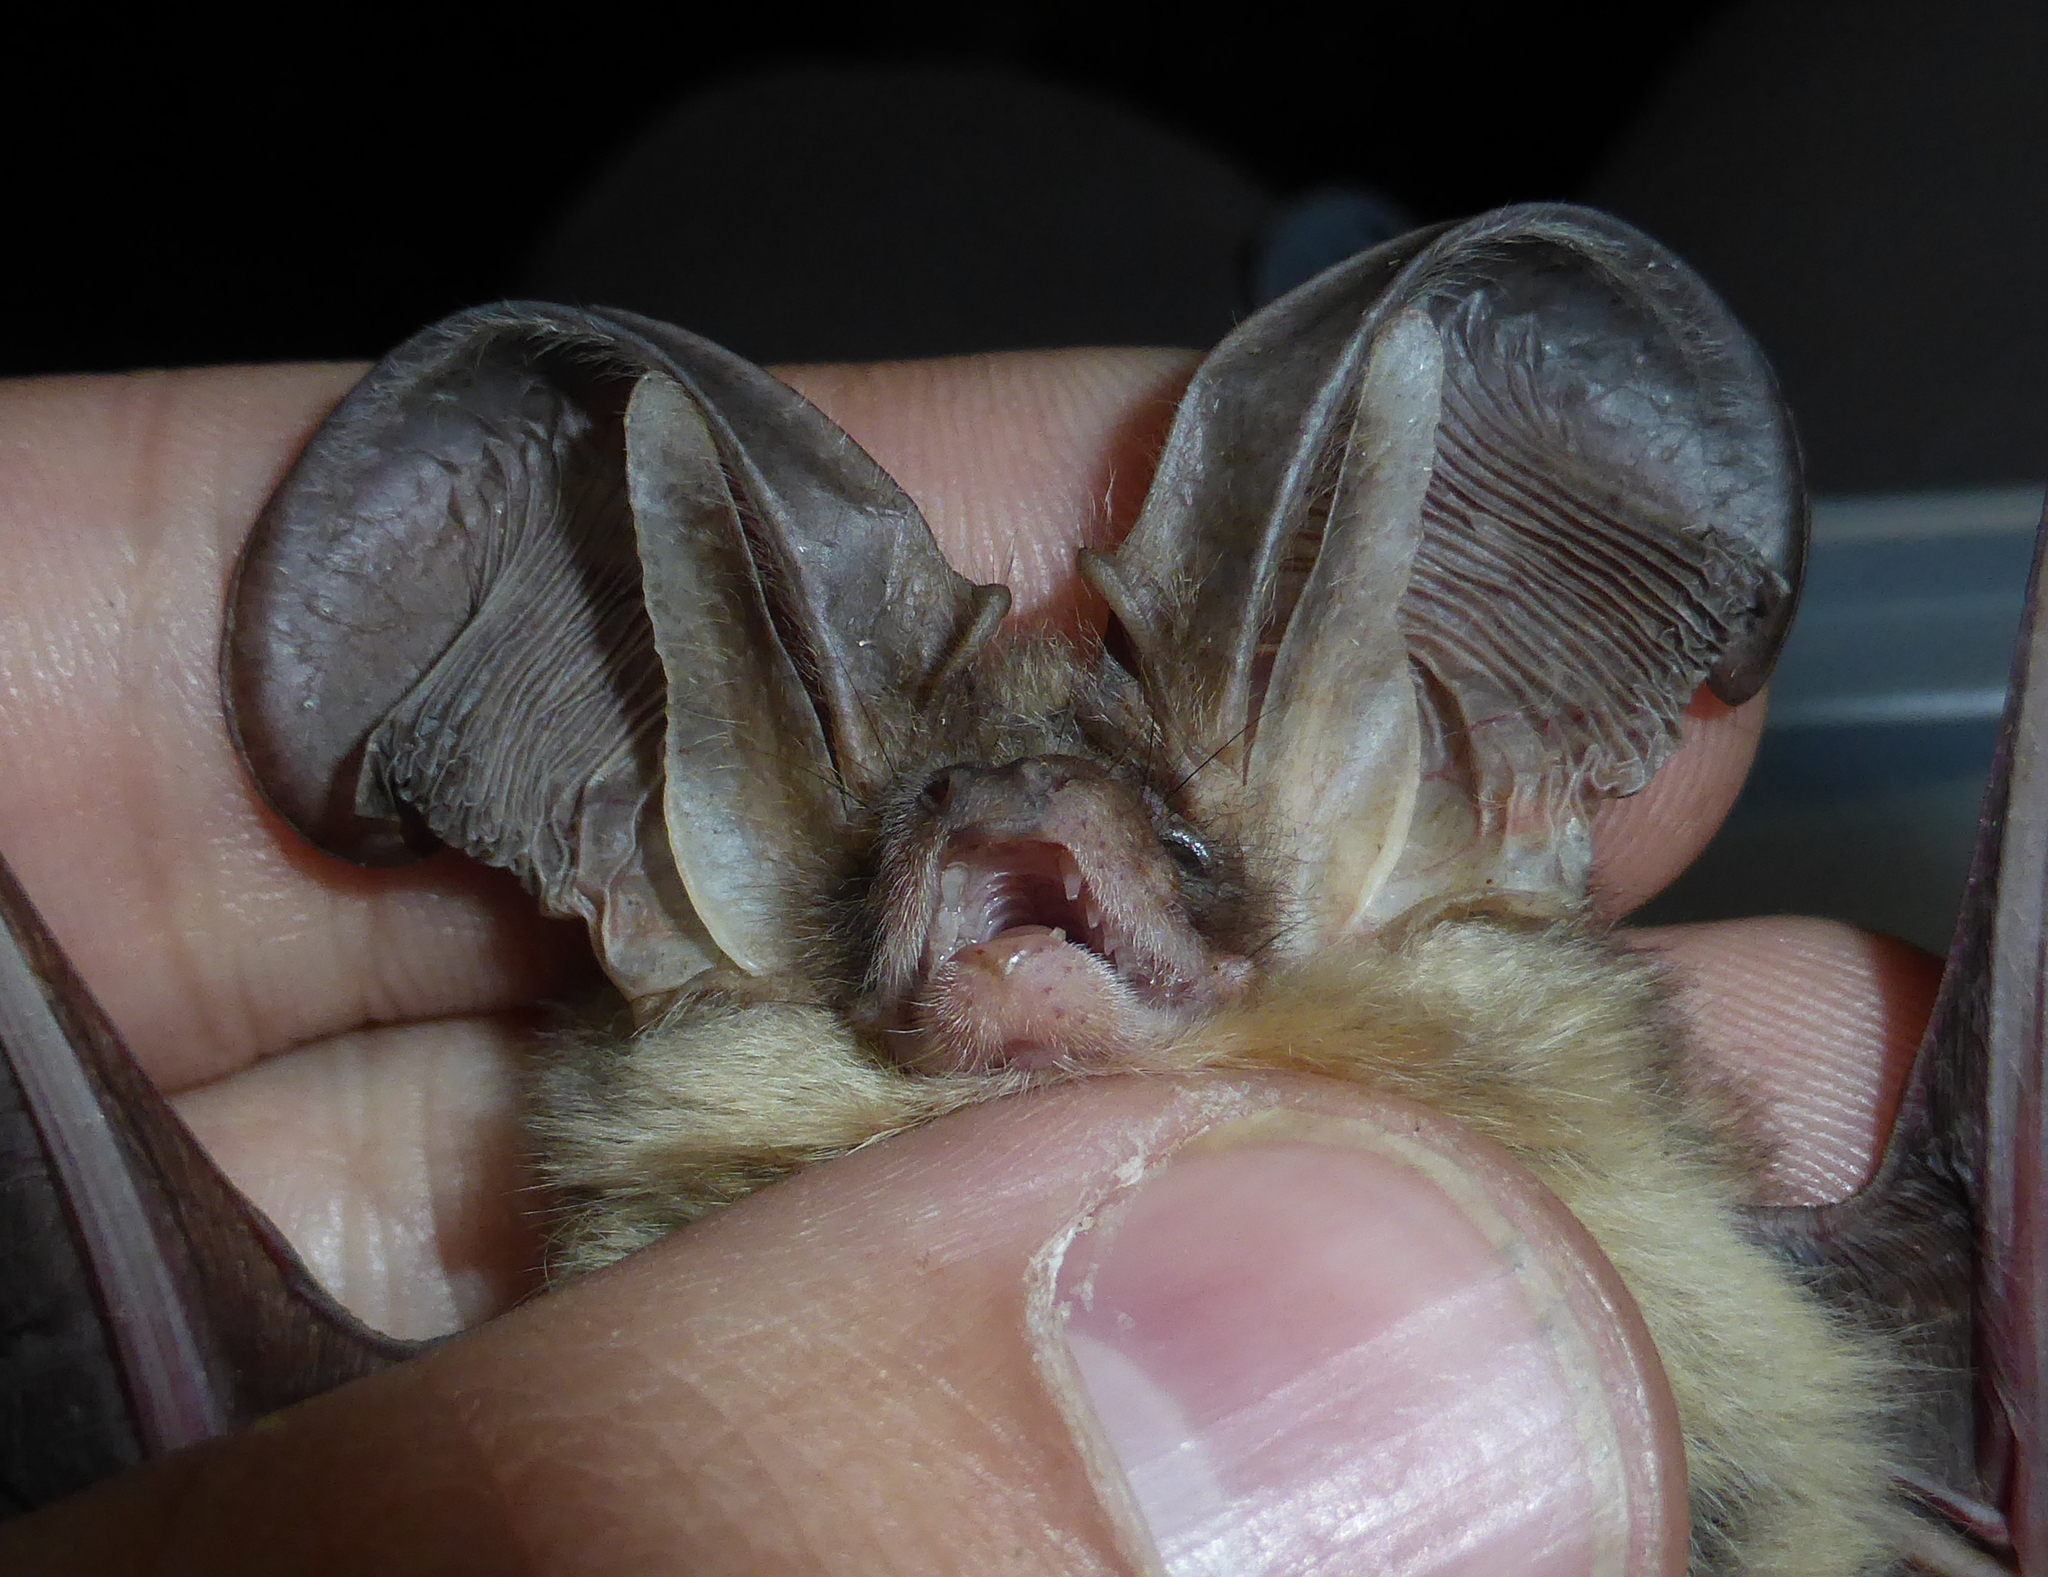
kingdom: Animalia
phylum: Chordata
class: Mammalia
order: Chiroptera
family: Vespertilionidae
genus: Plecotus
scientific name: Plecotus macrobullaris
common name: Mountain long-eared bat
